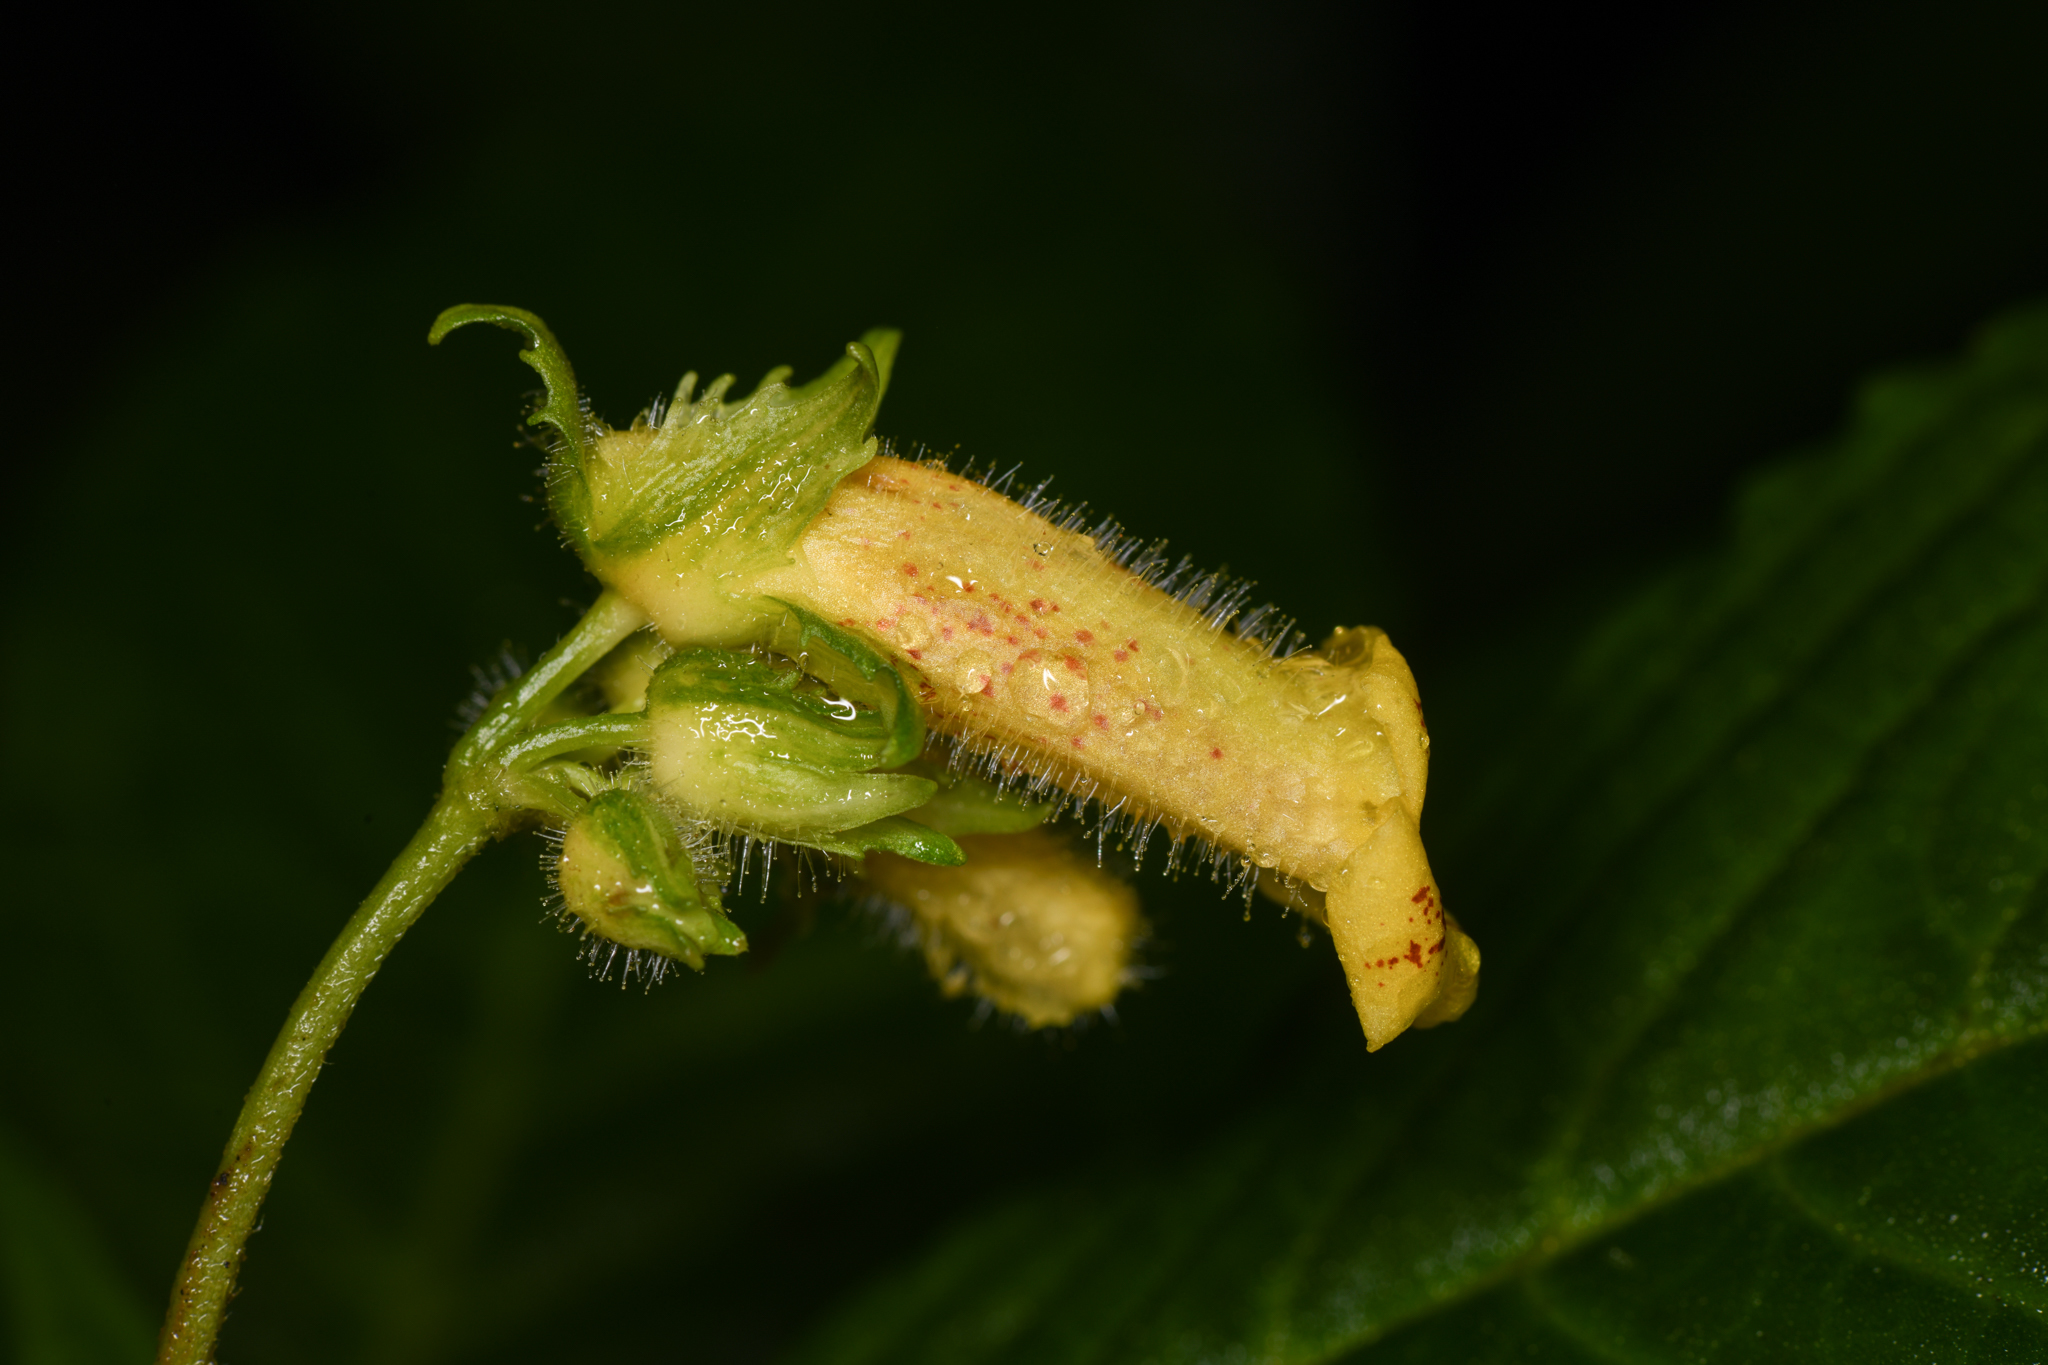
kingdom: Plantae
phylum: Tracheophyta
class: Magnoliopsida
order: Lamiales
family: Gesneriaceae
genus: Gasteranthus
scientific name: Gasteranthus wendlandianus
